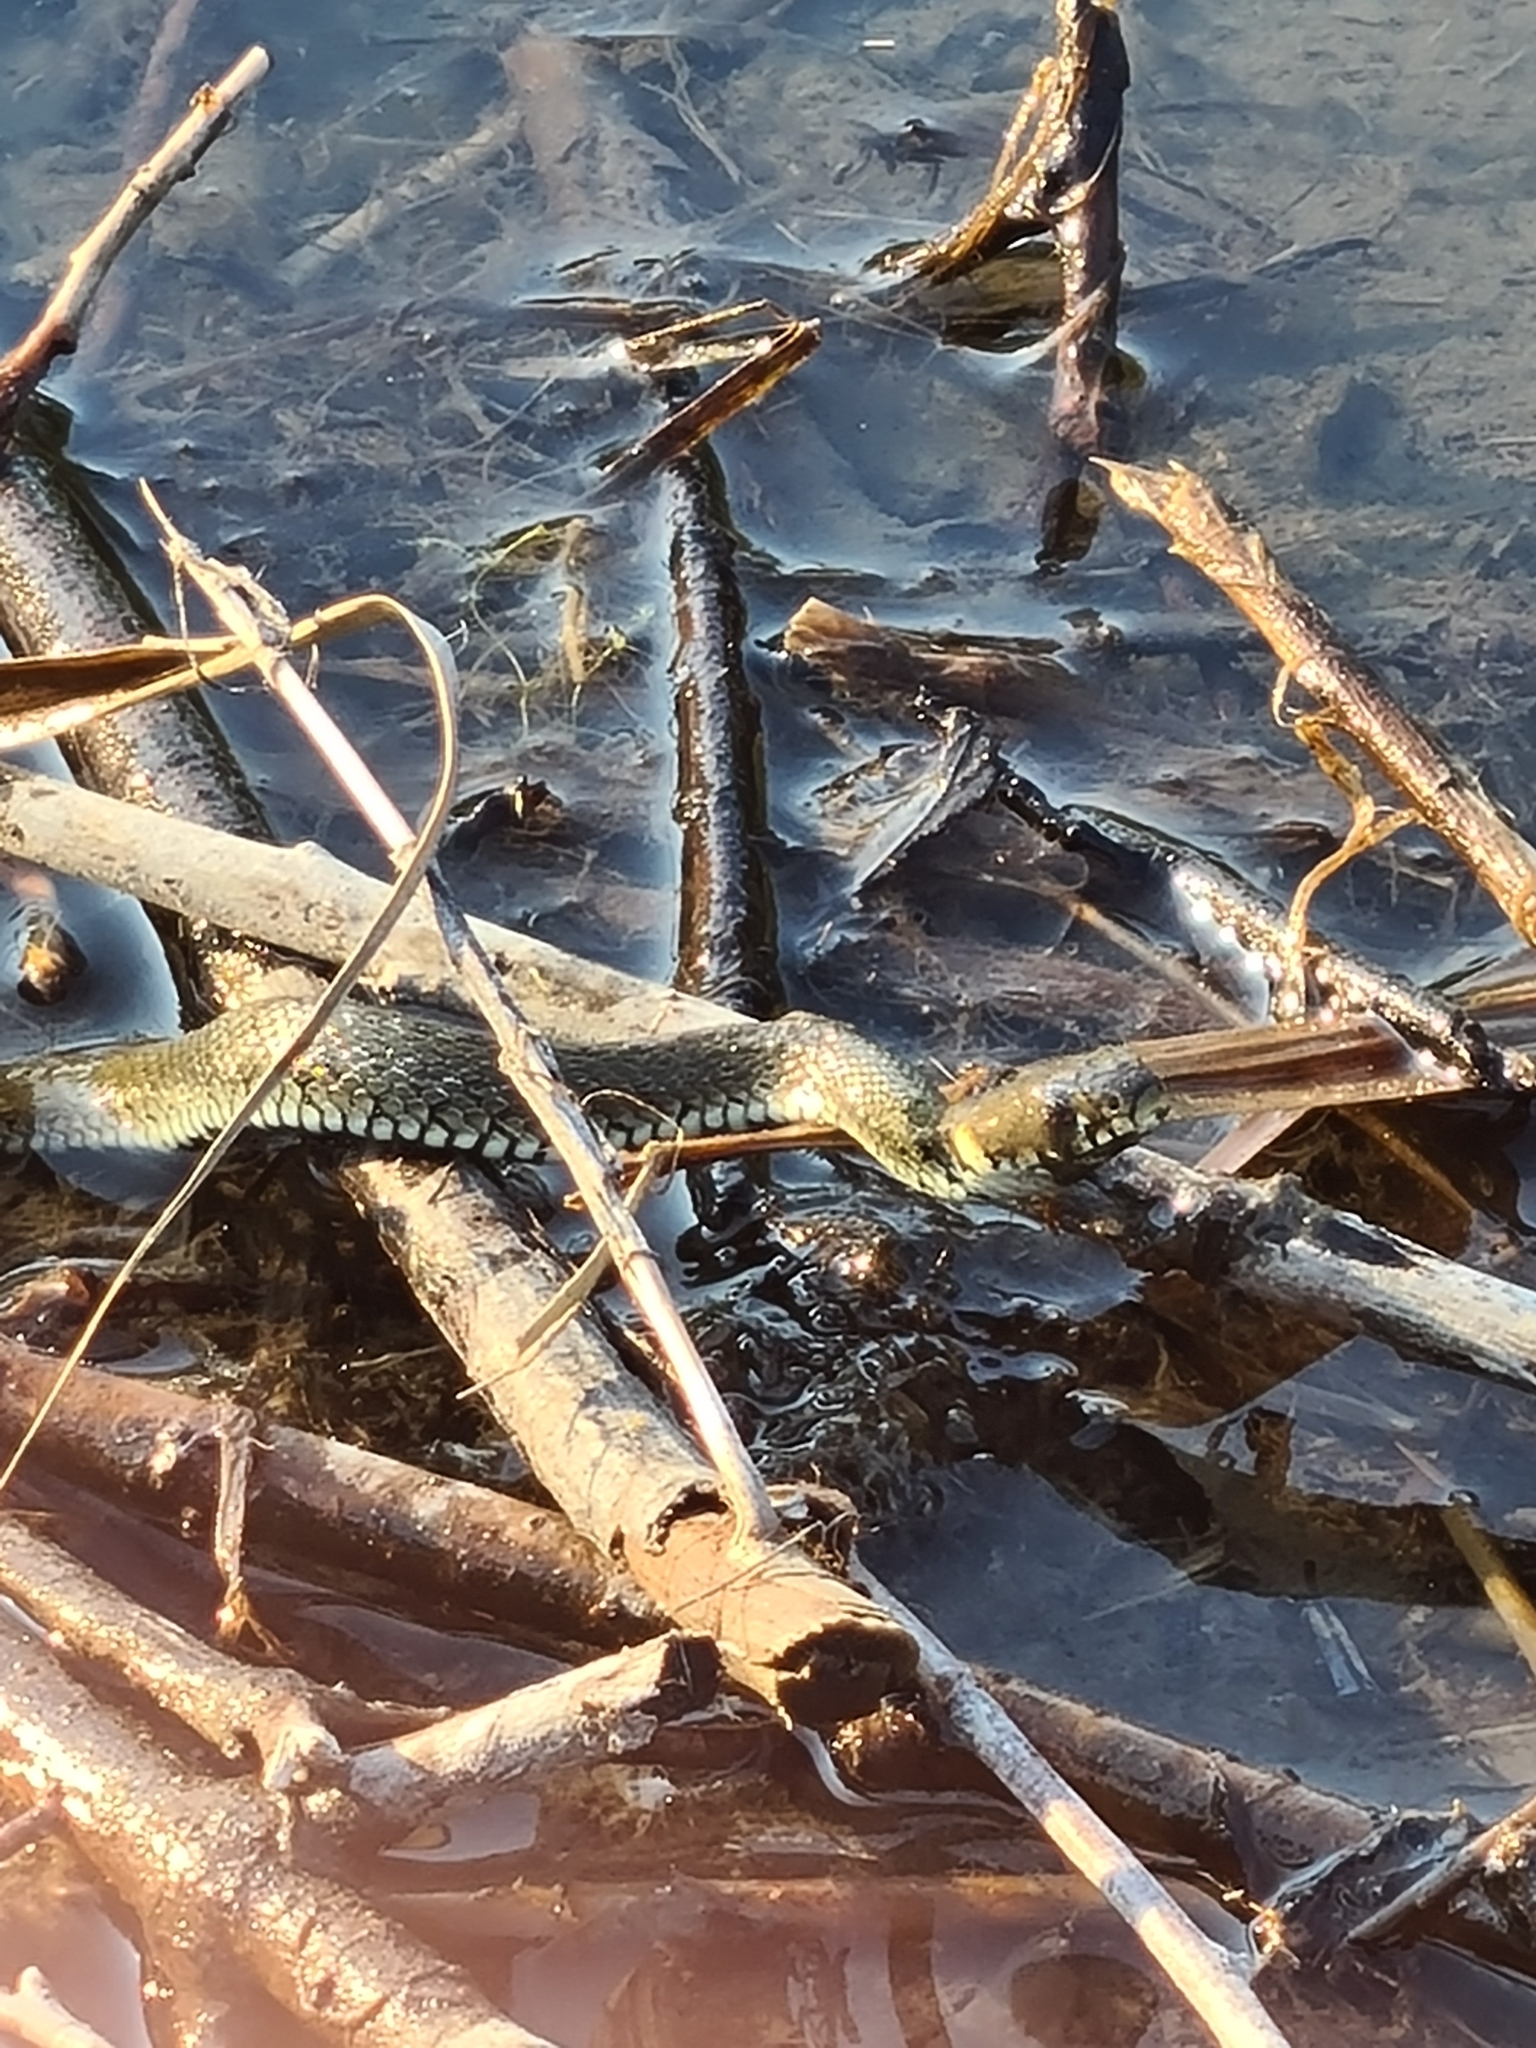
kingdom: Animalia
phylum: Chordata
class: Squamata
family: Colubridae
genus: Natrix
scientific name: Natrix natrix
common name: Grass snake
